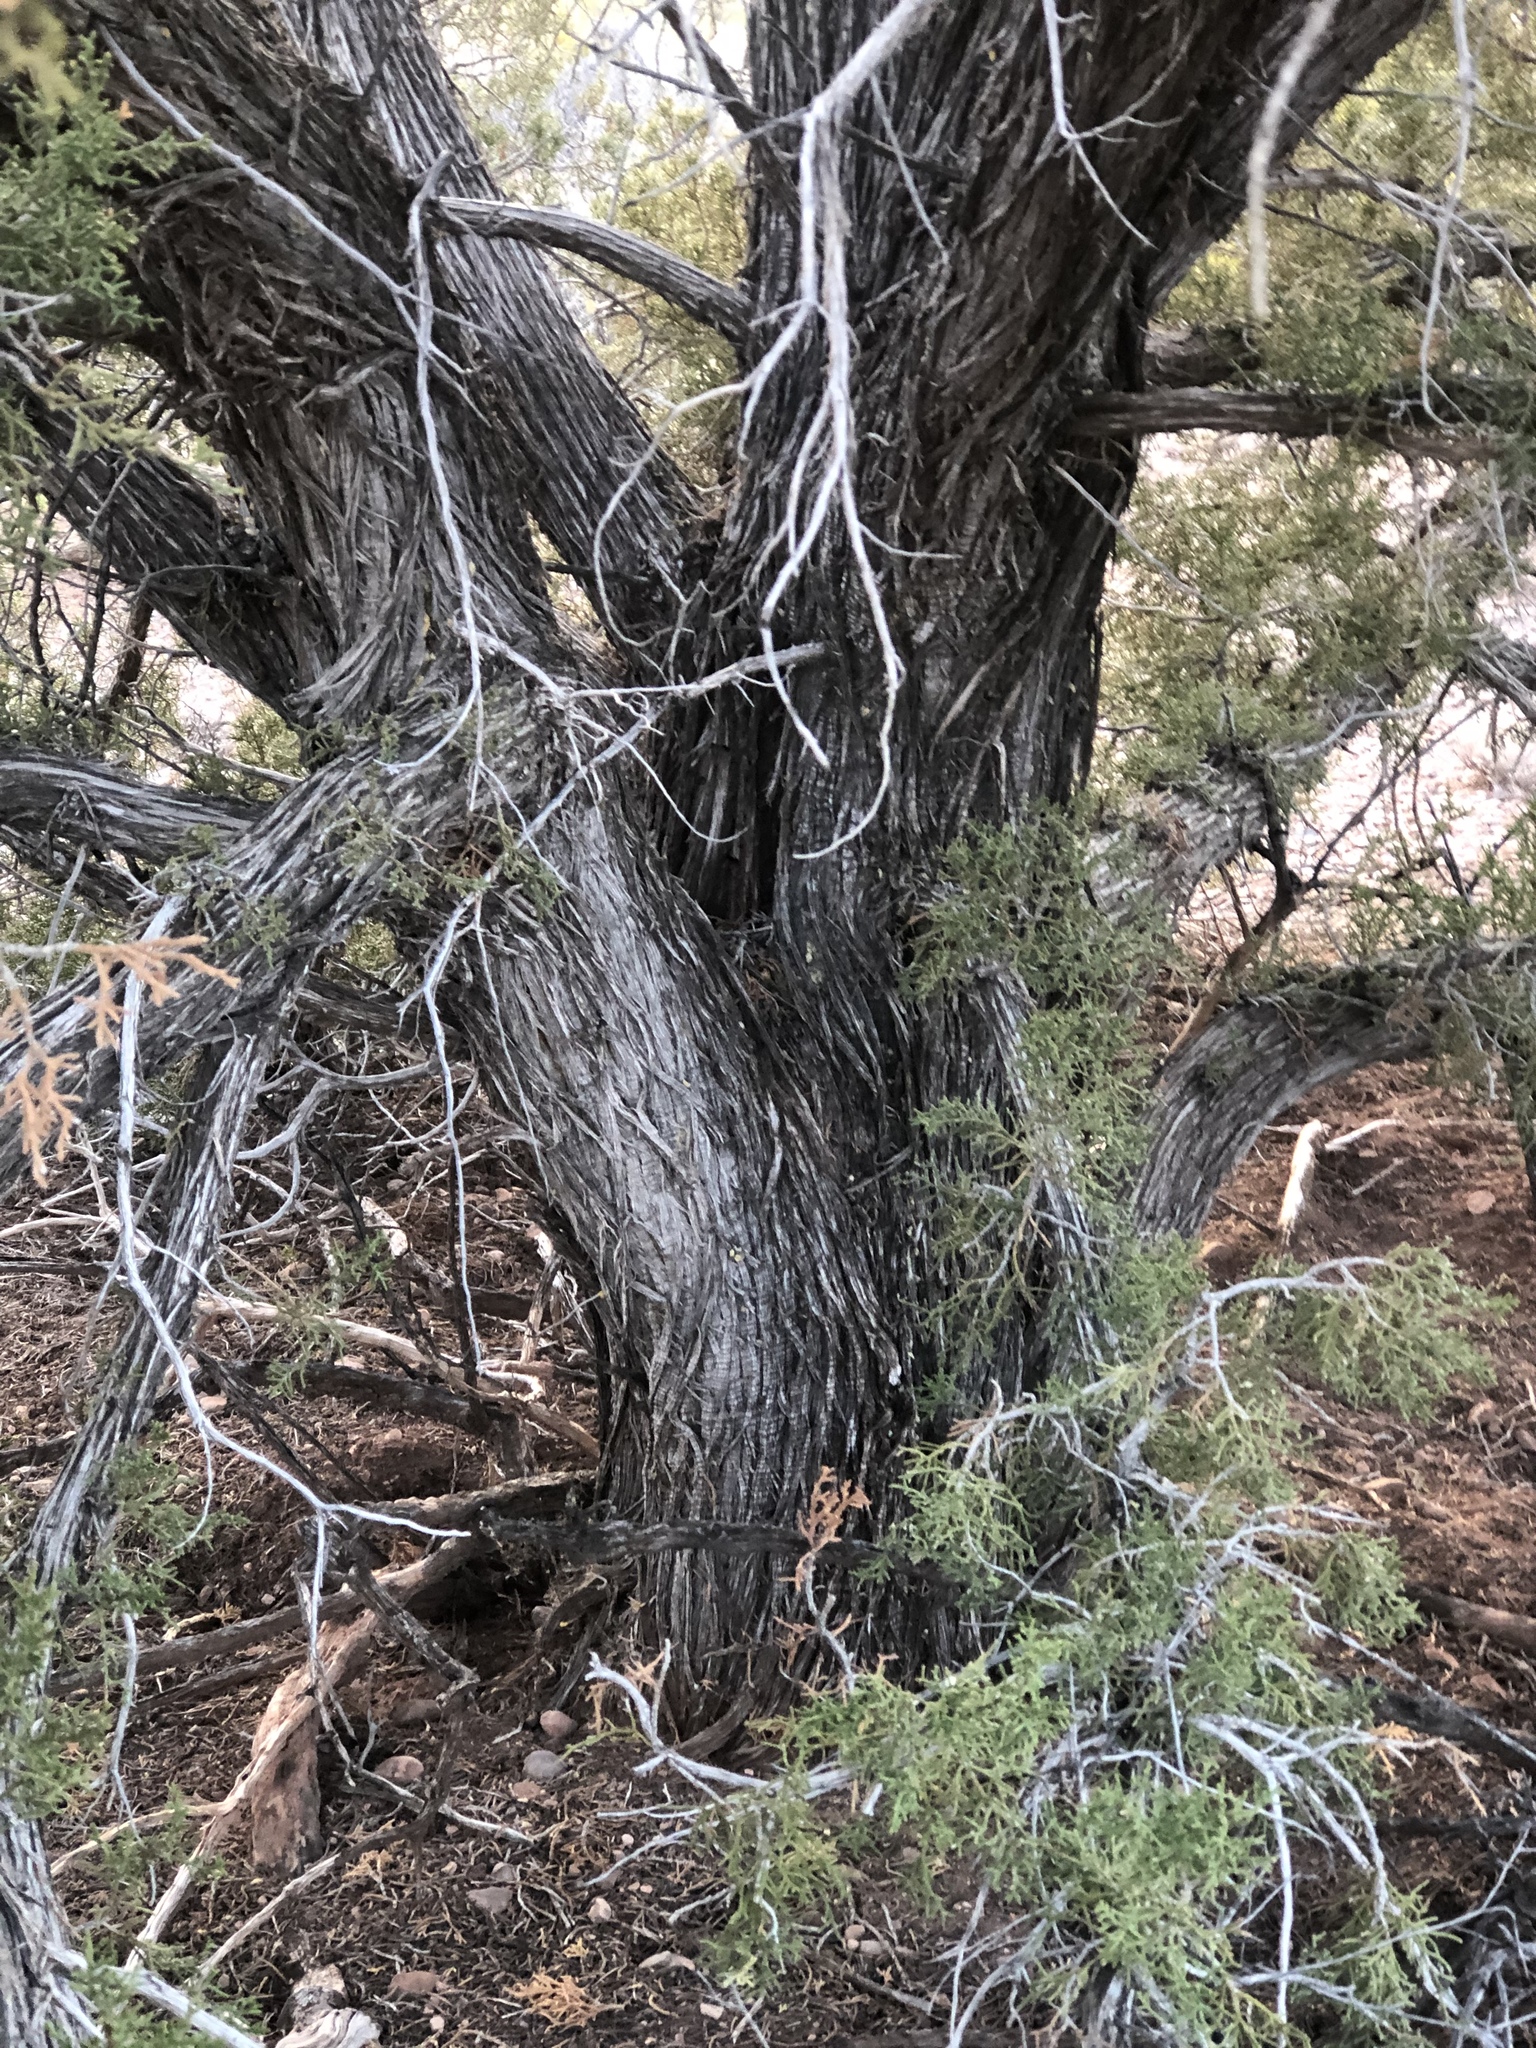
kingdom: Plantae
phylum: Tracheophyta
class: Pinopsida
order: Pinales
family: Cupressaceae
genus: Juniperus
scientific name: Juniperus monosperma
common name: One-seed juniper
